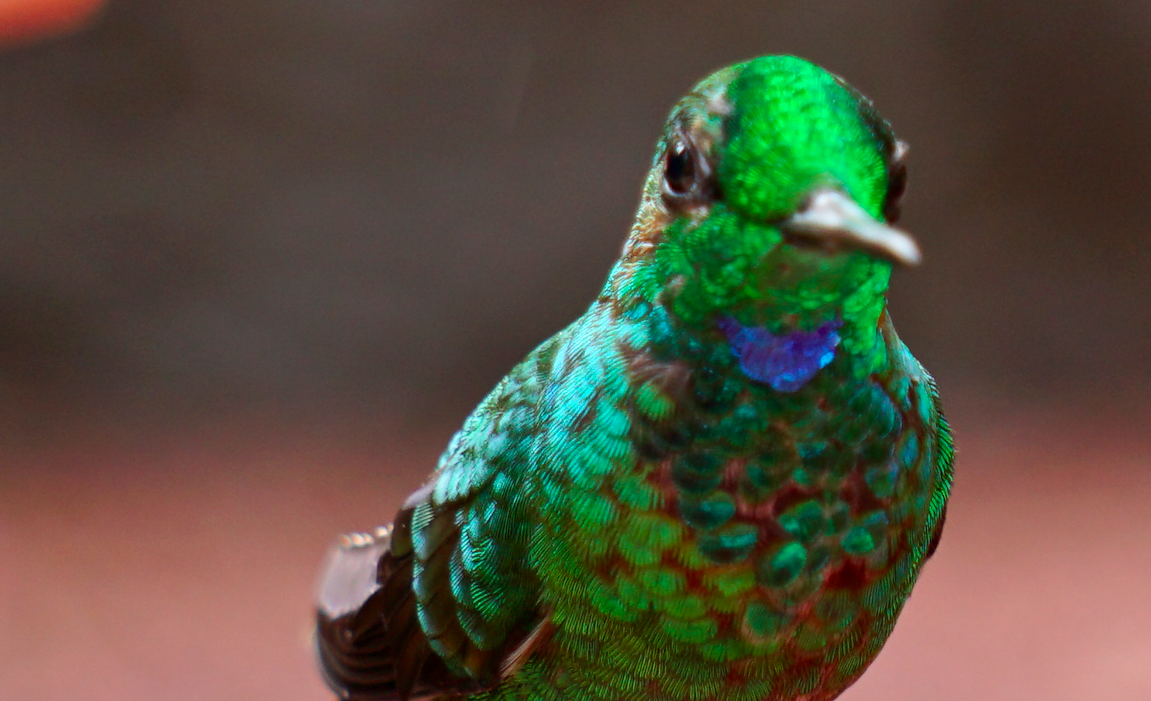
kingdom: Animalia
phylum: Chordata
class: Aves
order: Apodiformes
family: Trochilidae
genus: Heliodoxa
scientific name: Heliodoxa jacula
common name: Green-crowned brilliant
